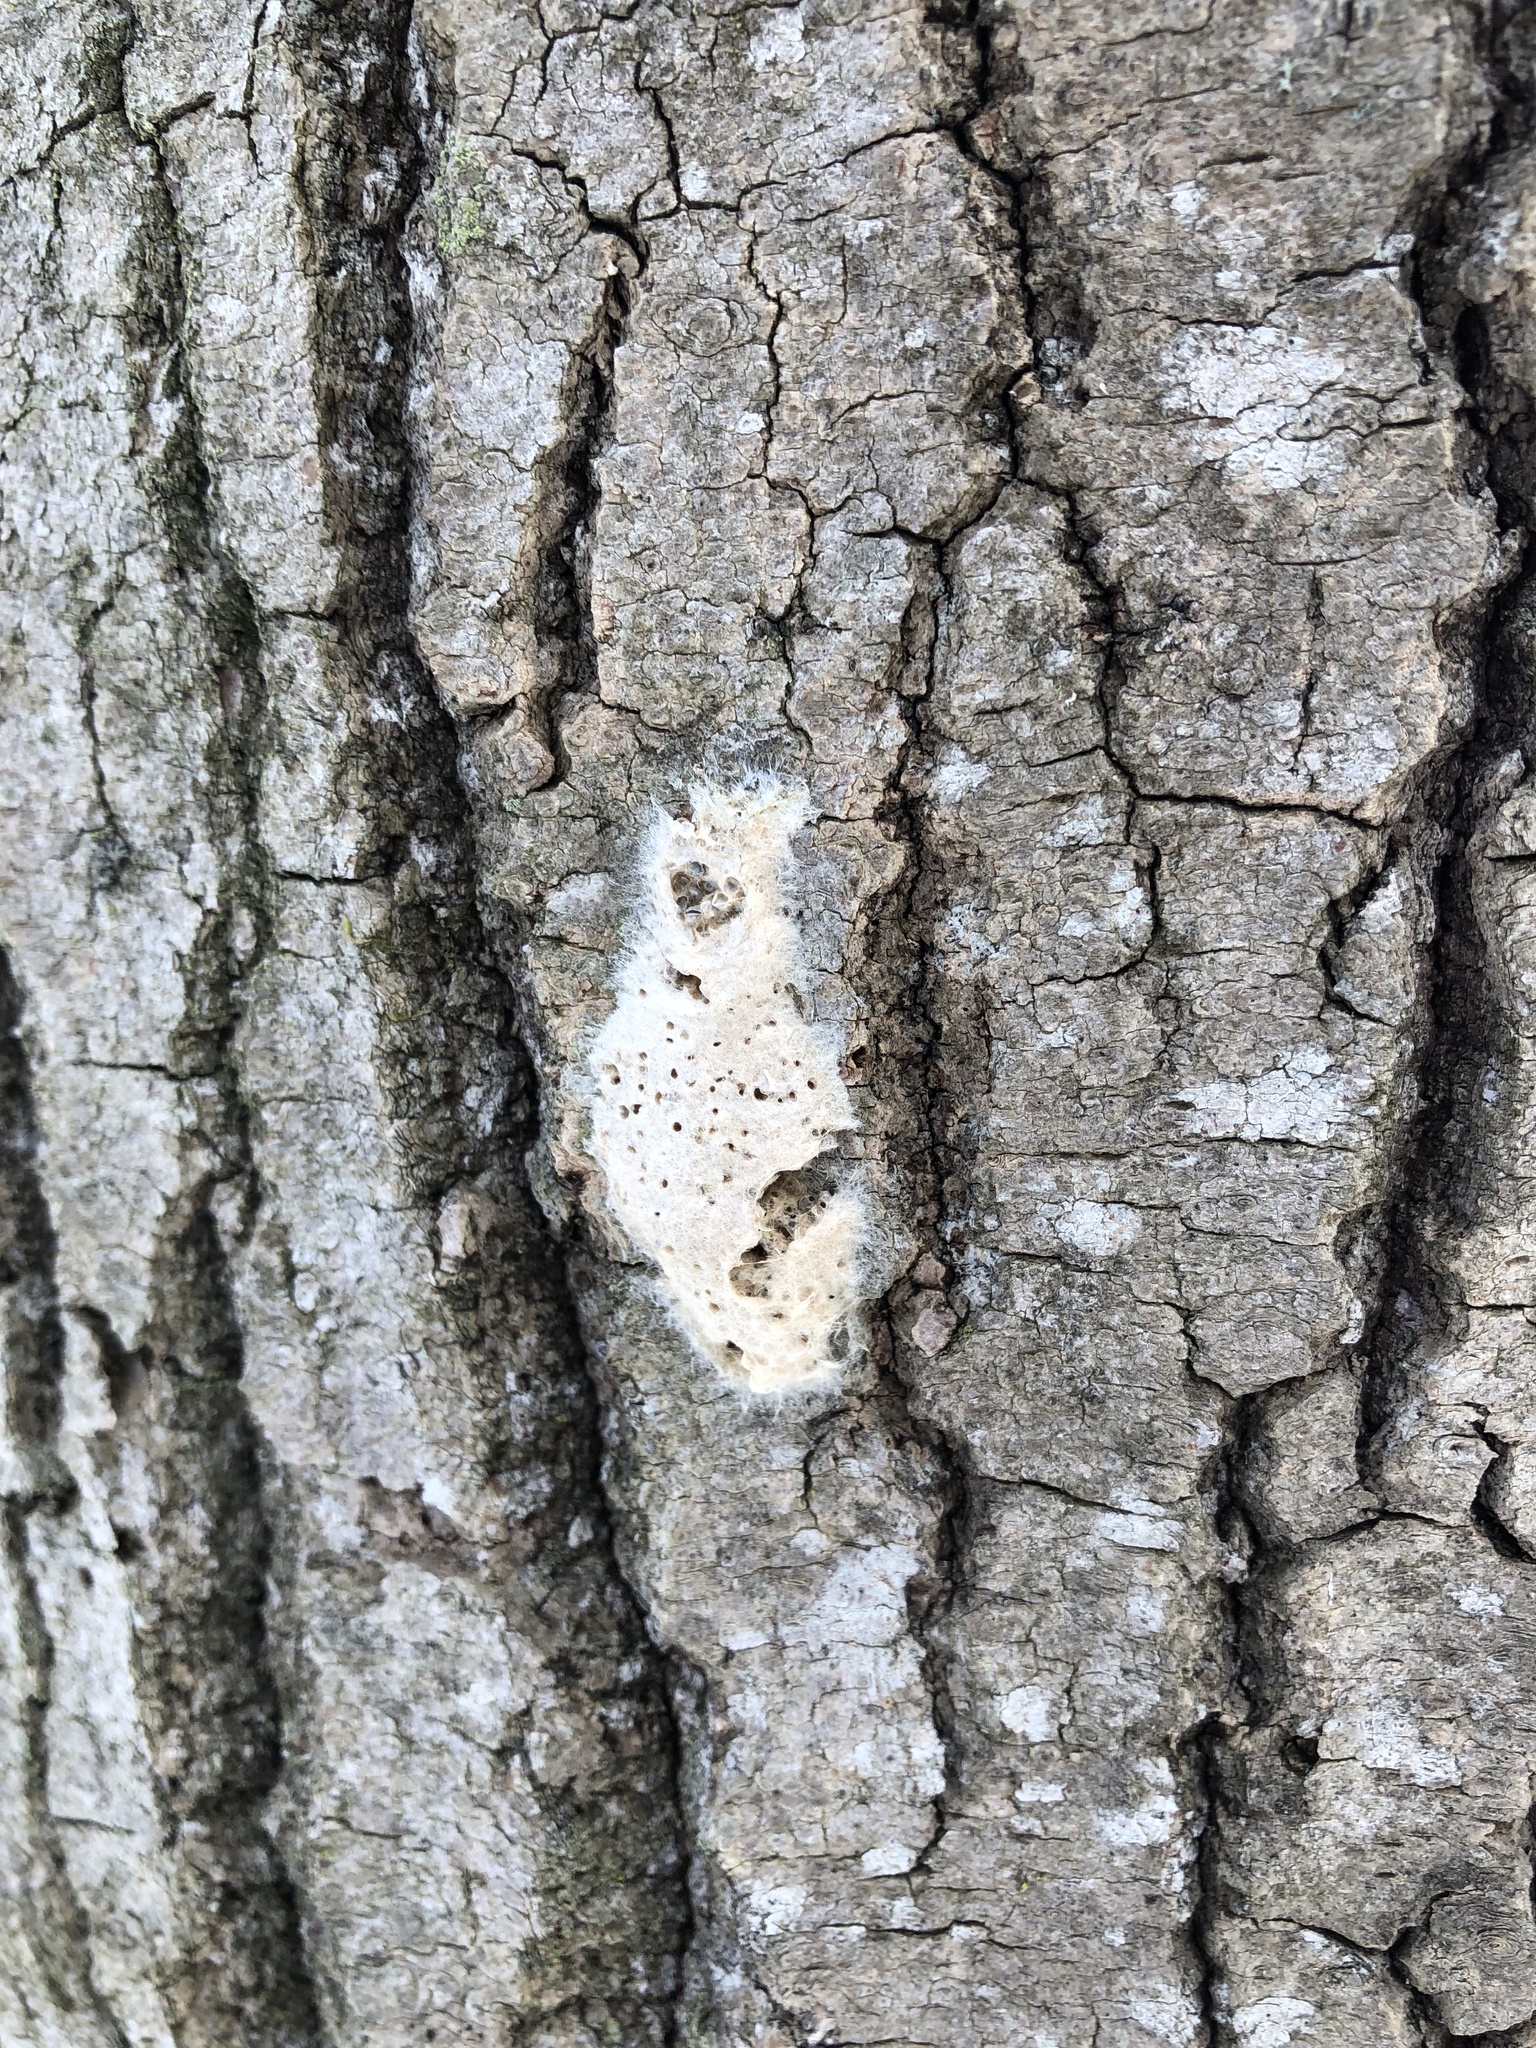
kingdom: Animalia
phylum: Arthropoda
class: Insecta
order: Lepidoptera
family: Erebidae
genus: Lymantria
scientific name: Lymantria dispar
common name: Gypsy moth
